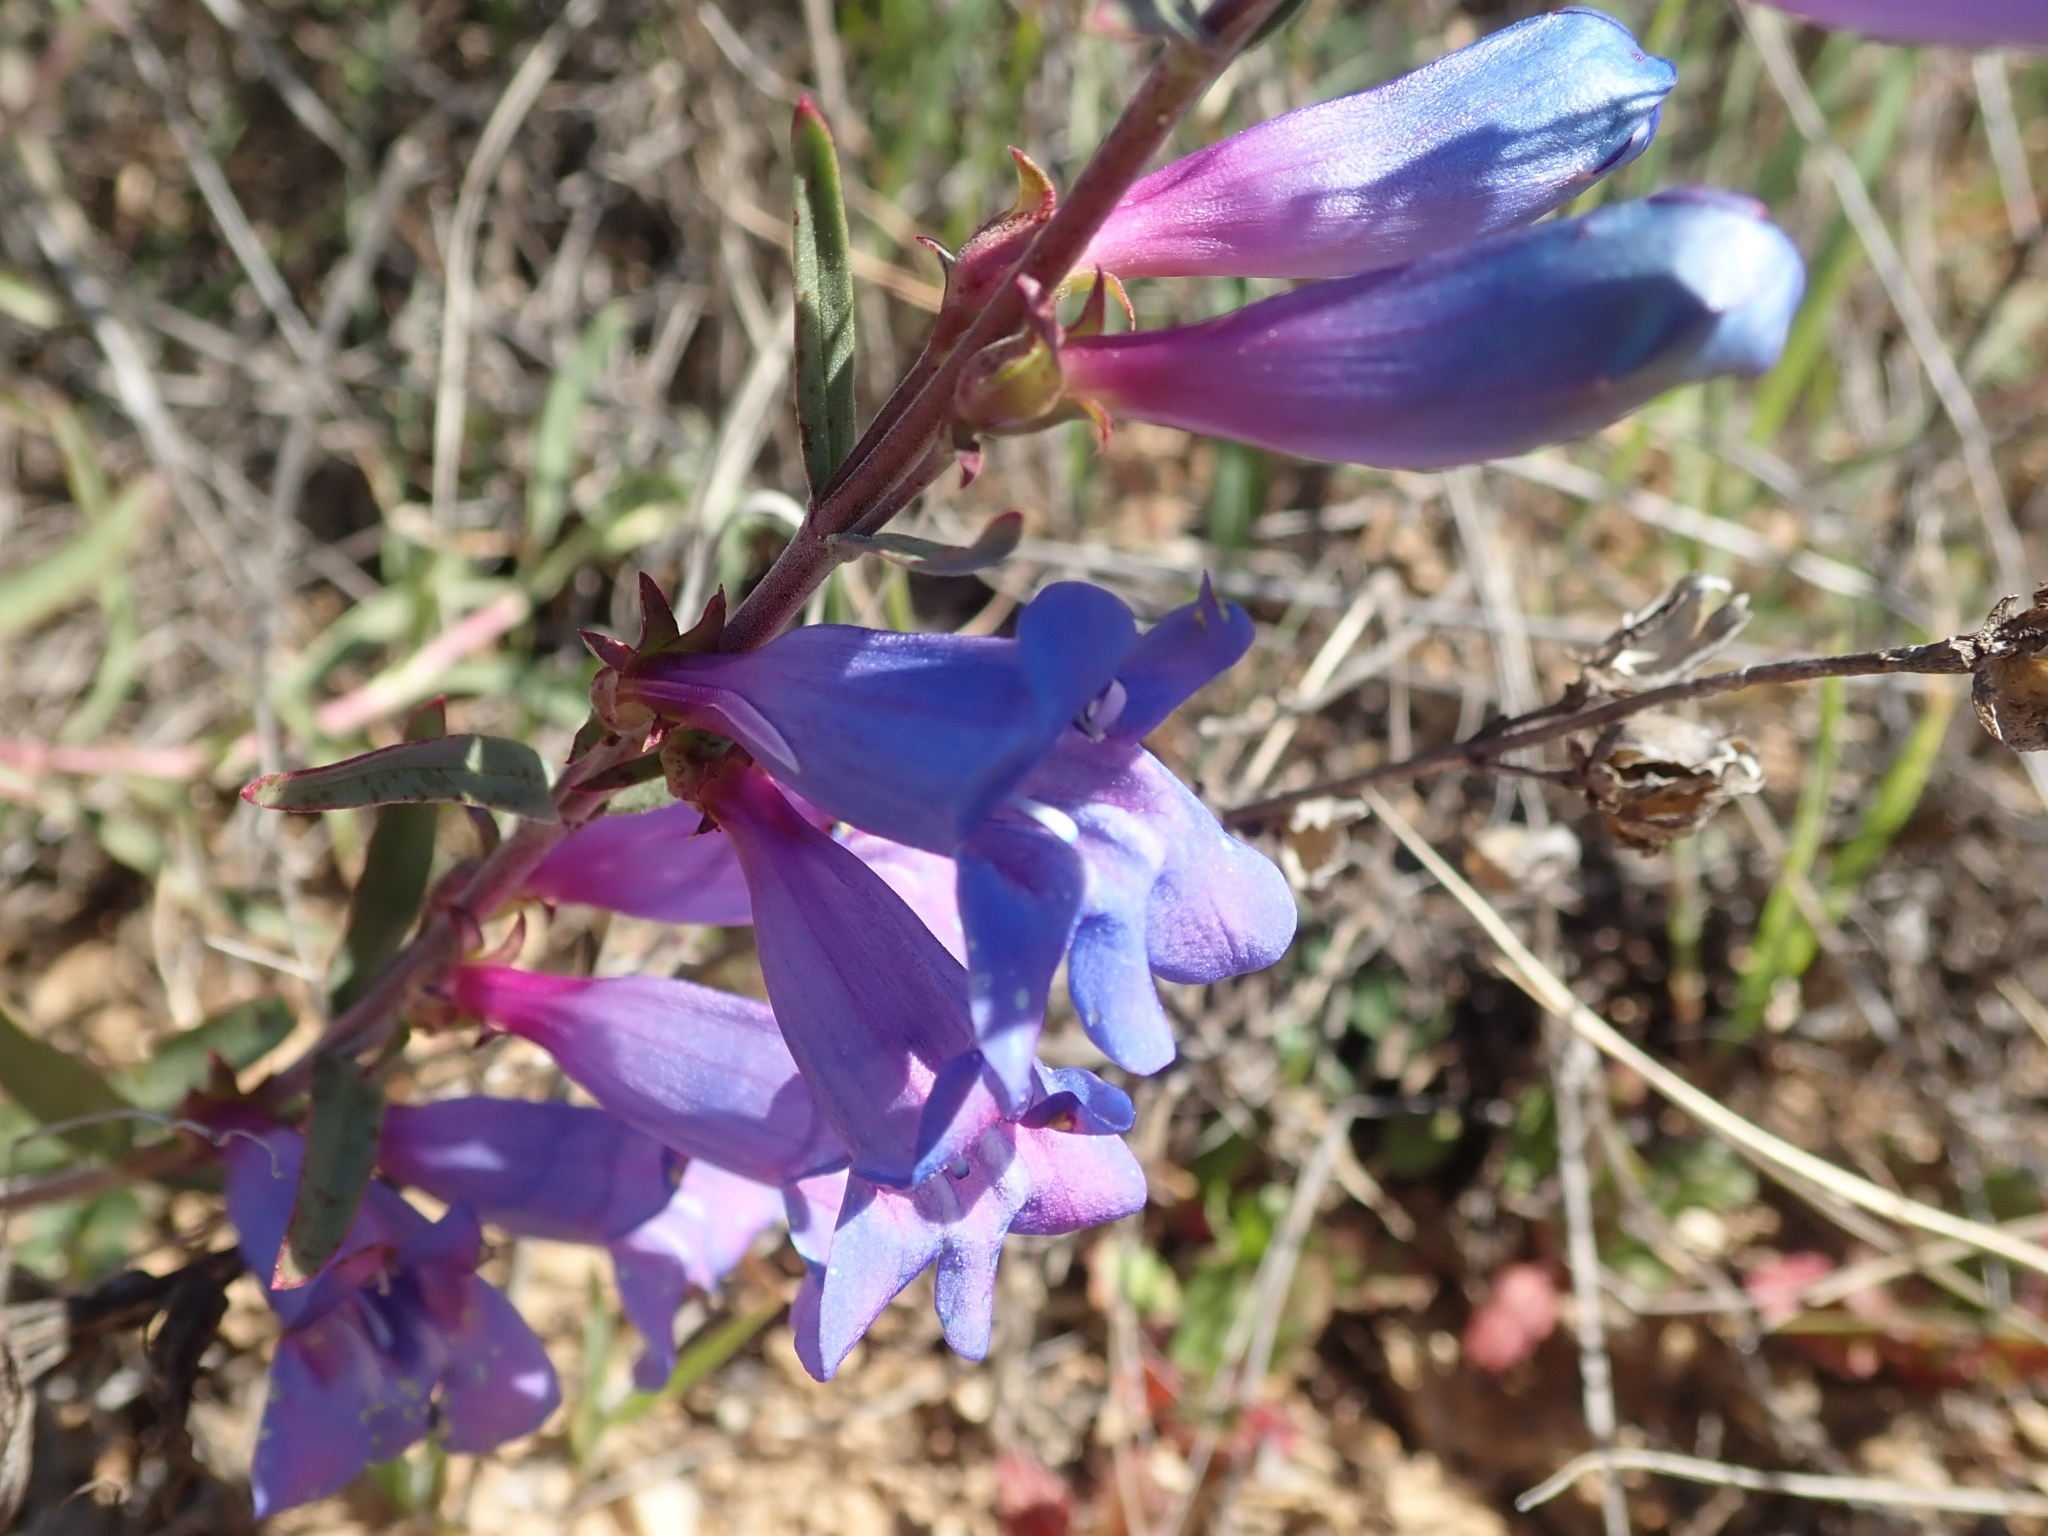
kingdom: Plantae
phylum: Tracheophyta
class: Magnoliopsida
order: Lamiales
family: Plantaginaceae
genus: Penstemon
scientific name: Penstemon heterophyllus
